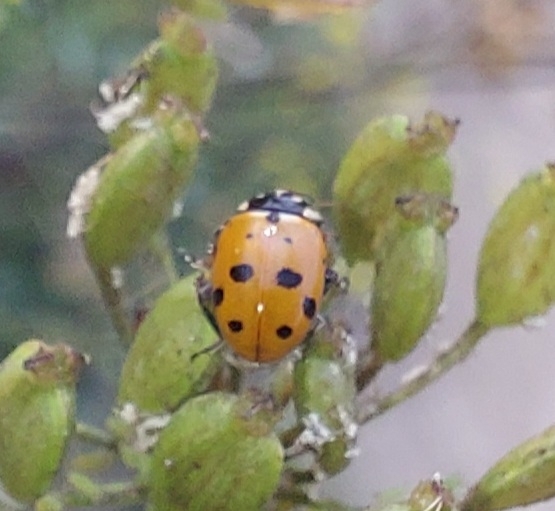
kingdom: Animalia
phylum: Arthropoda
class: Insecta
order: Coleoptera
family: Coccinellidae
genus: Hippodamia
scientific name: Hippodamia variegata
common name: Ladybird beetle
